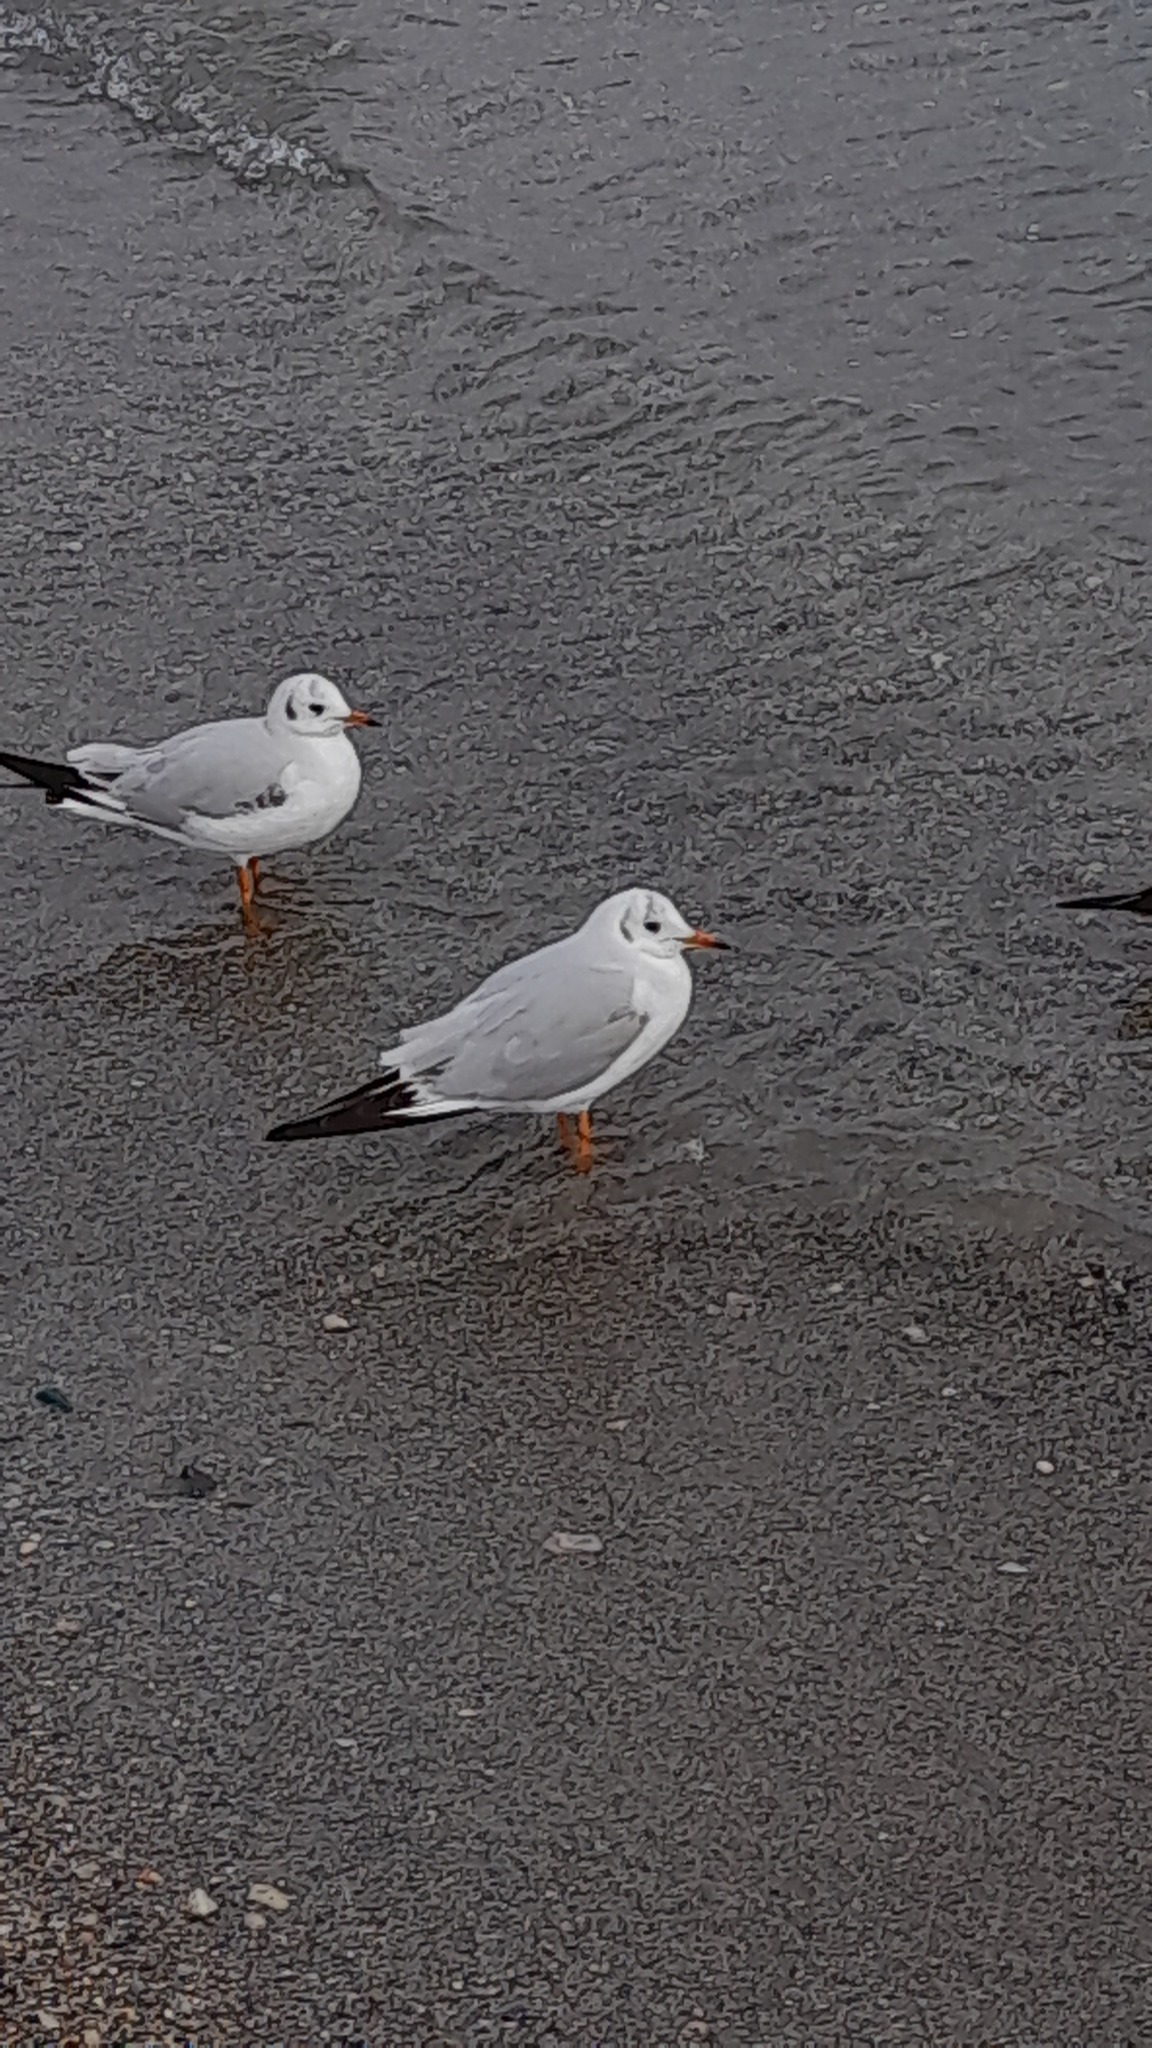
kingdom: Animalia
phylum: Chordata
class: Aves
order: Charadriiformes
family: Laridae
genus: Chroicocephalus
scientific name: Chroicocephalus ridibundus
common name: Black-headed gull
